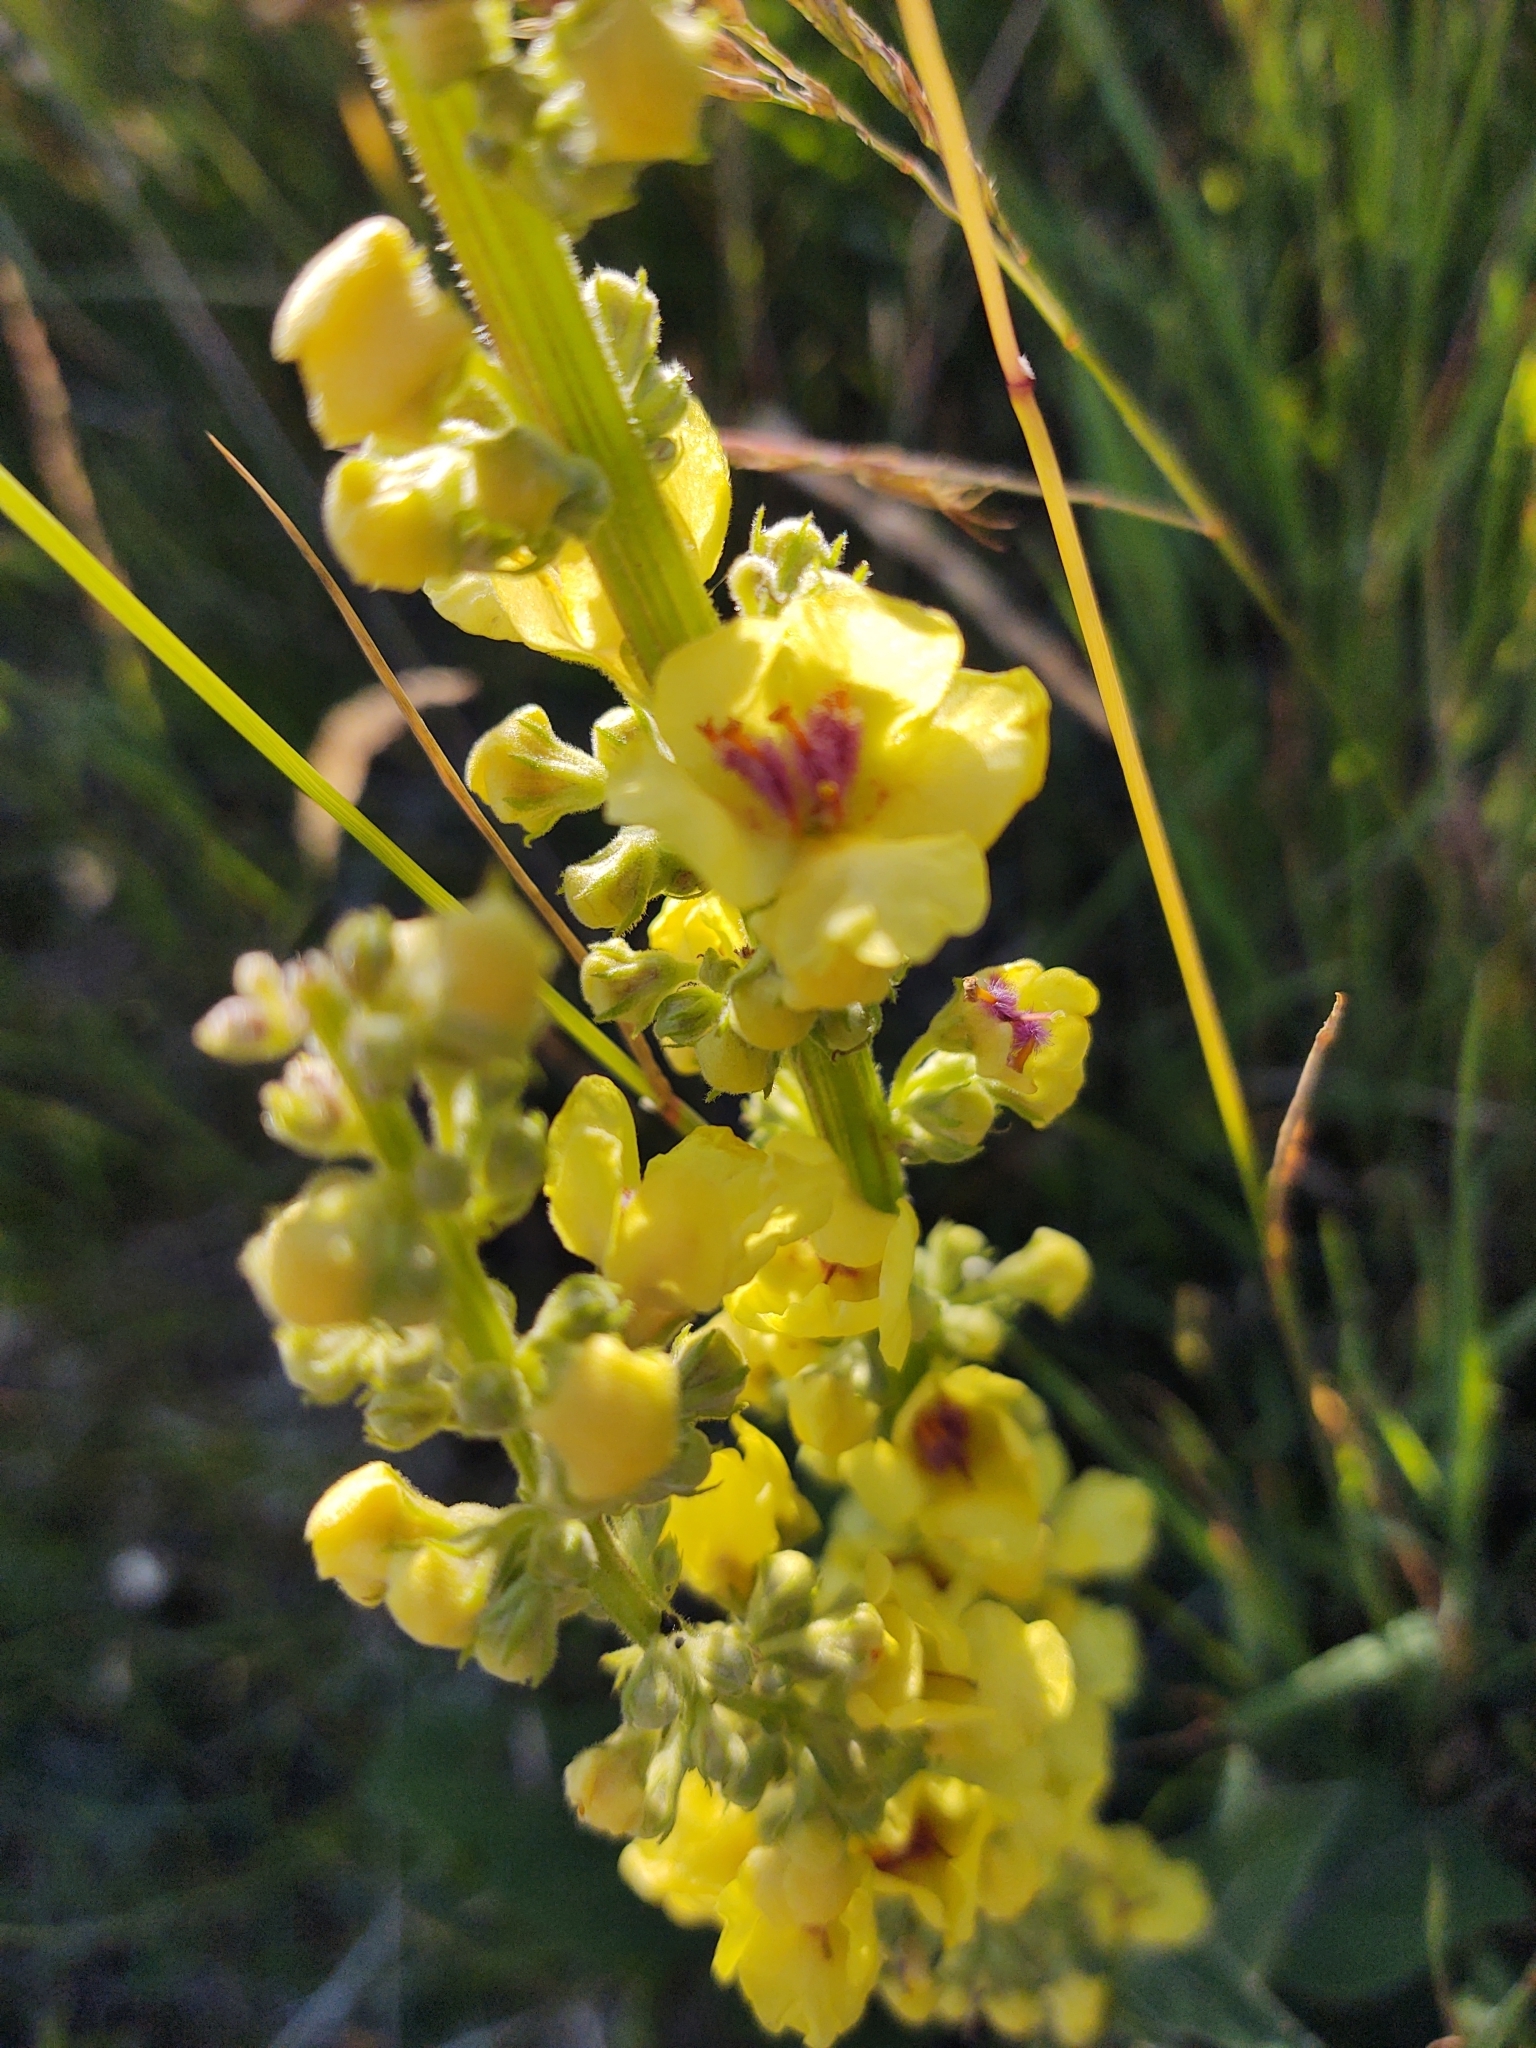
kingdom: Plantae
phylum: Tracheophyta
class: Magnoliopsida
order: Lamiales
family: Scrophulariaceae
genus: Verbascum
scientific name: Verbascum nigrum
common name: Dark mullein
